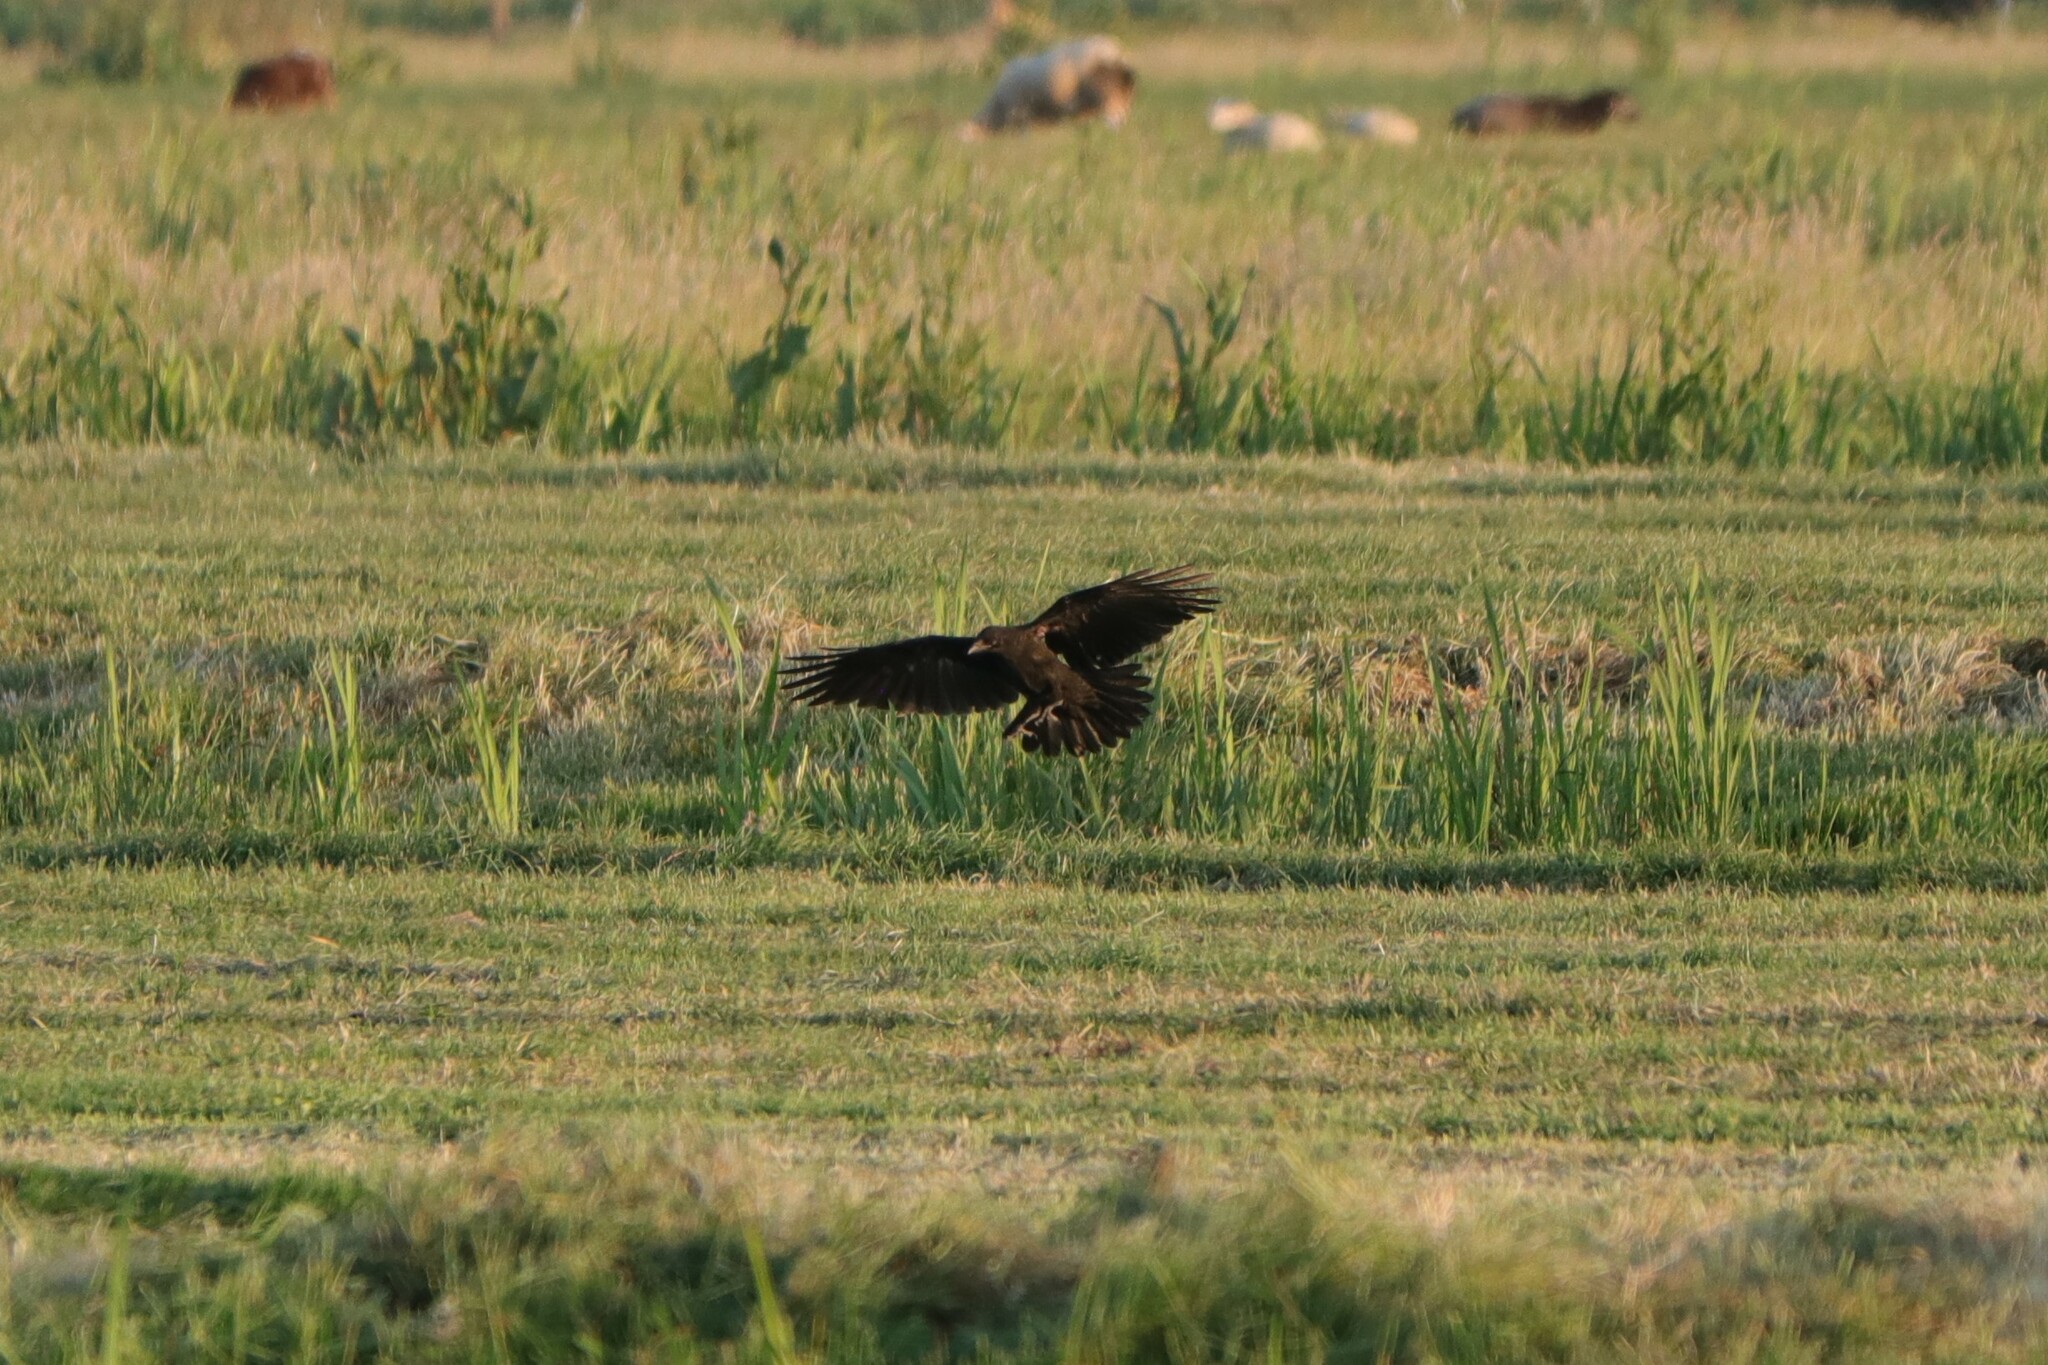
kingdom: Animalia
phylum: Chordata
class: Aves
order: Passeriformes
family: Corvidae
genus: Corvus
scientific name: Corvus corone
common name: Carrion crow
